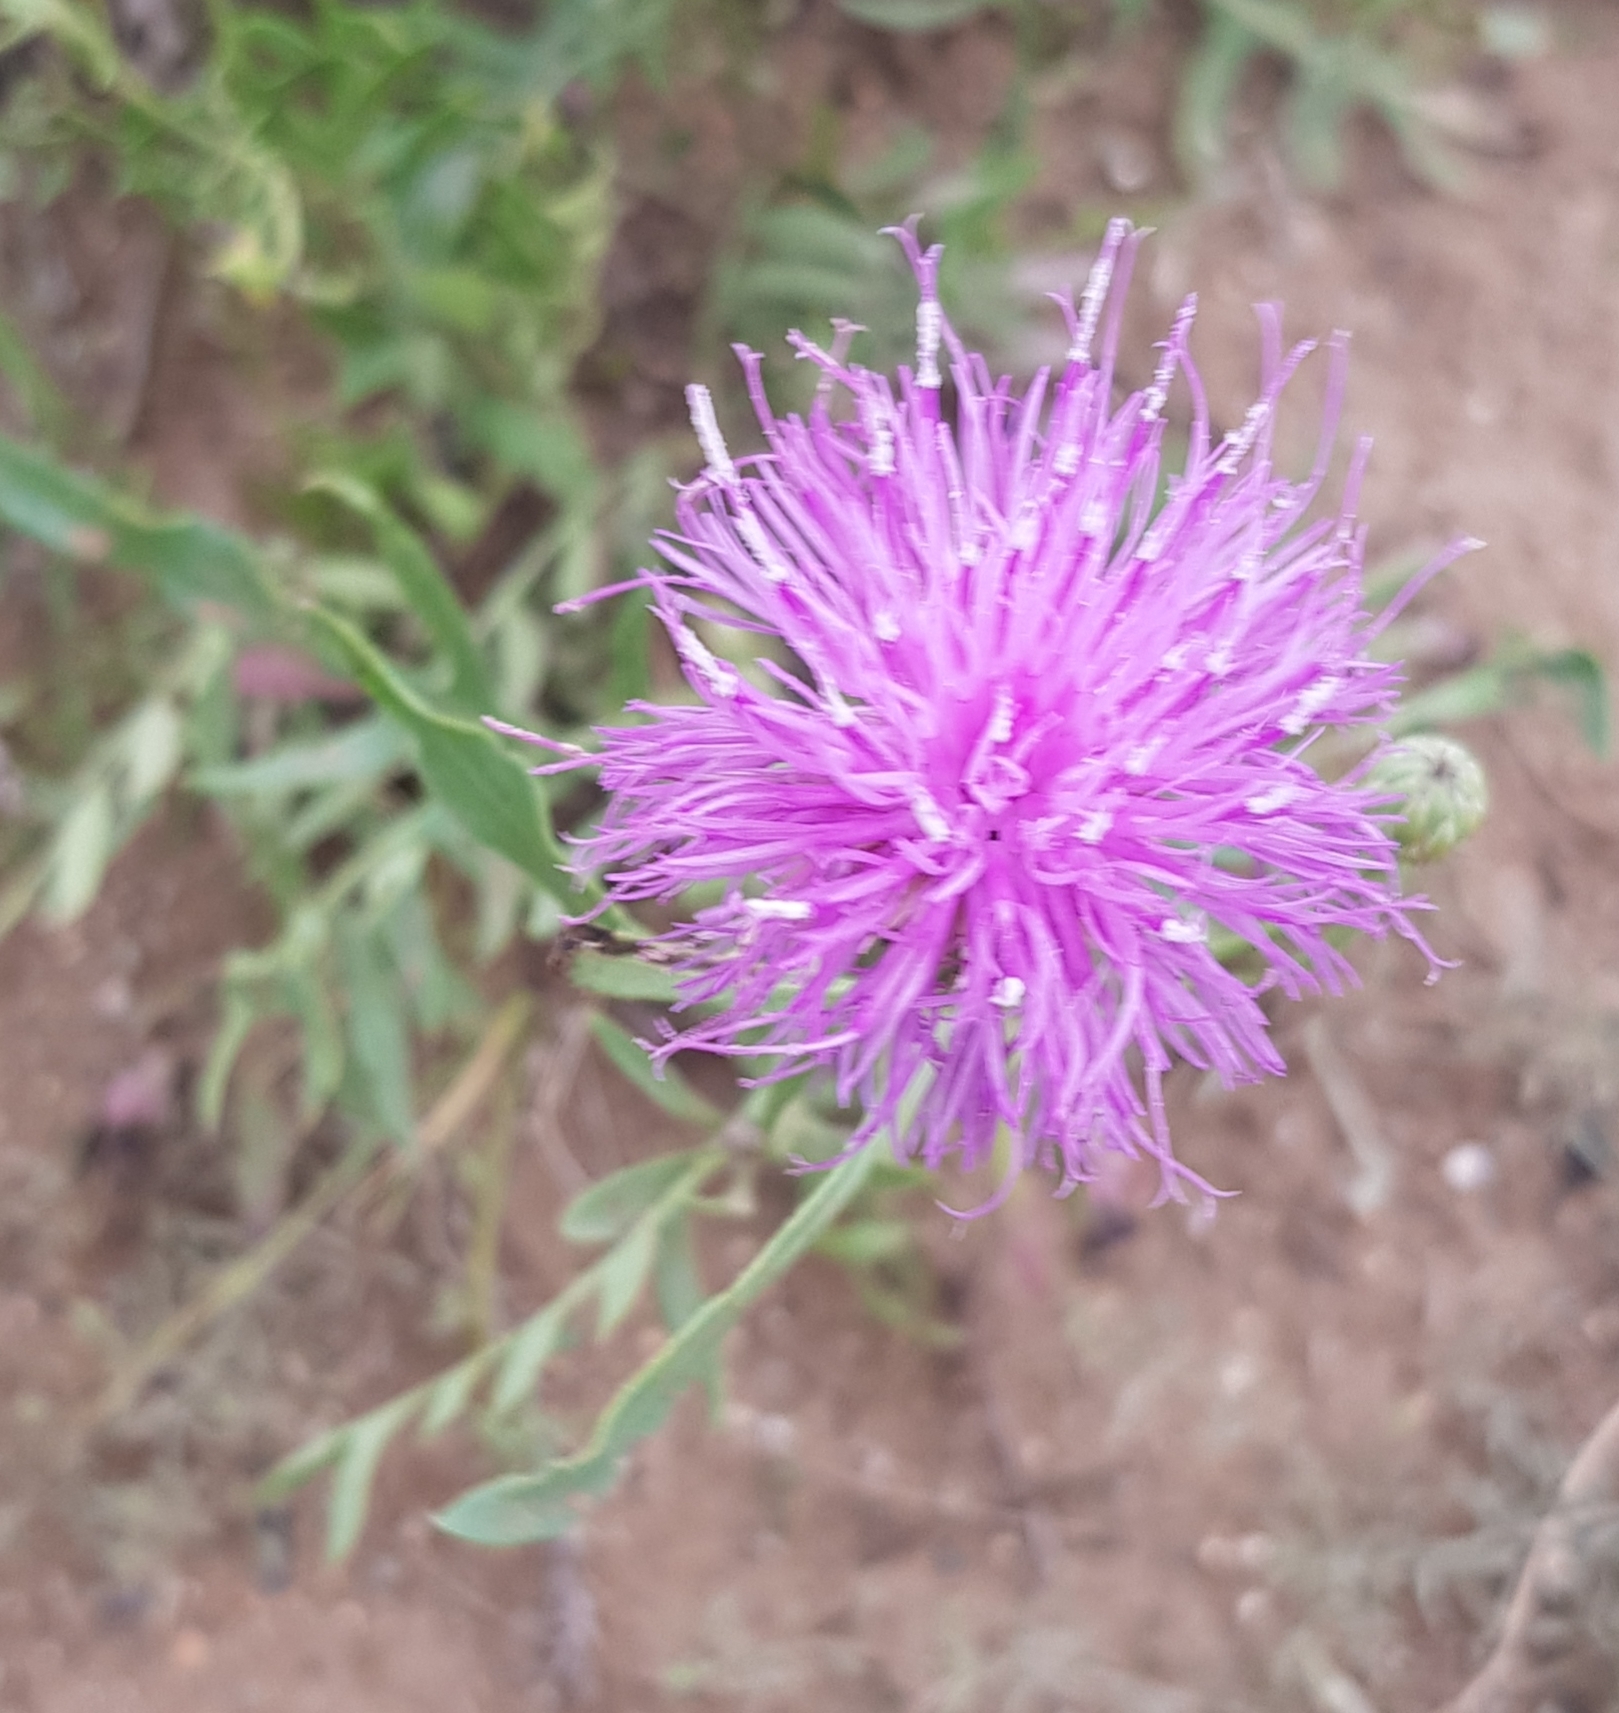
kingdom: Plantae
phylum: Tracheophyta
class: Magnoliopsida
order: Asterales
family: Asteraceae
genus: Klasea
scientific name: Klasea centauroides
